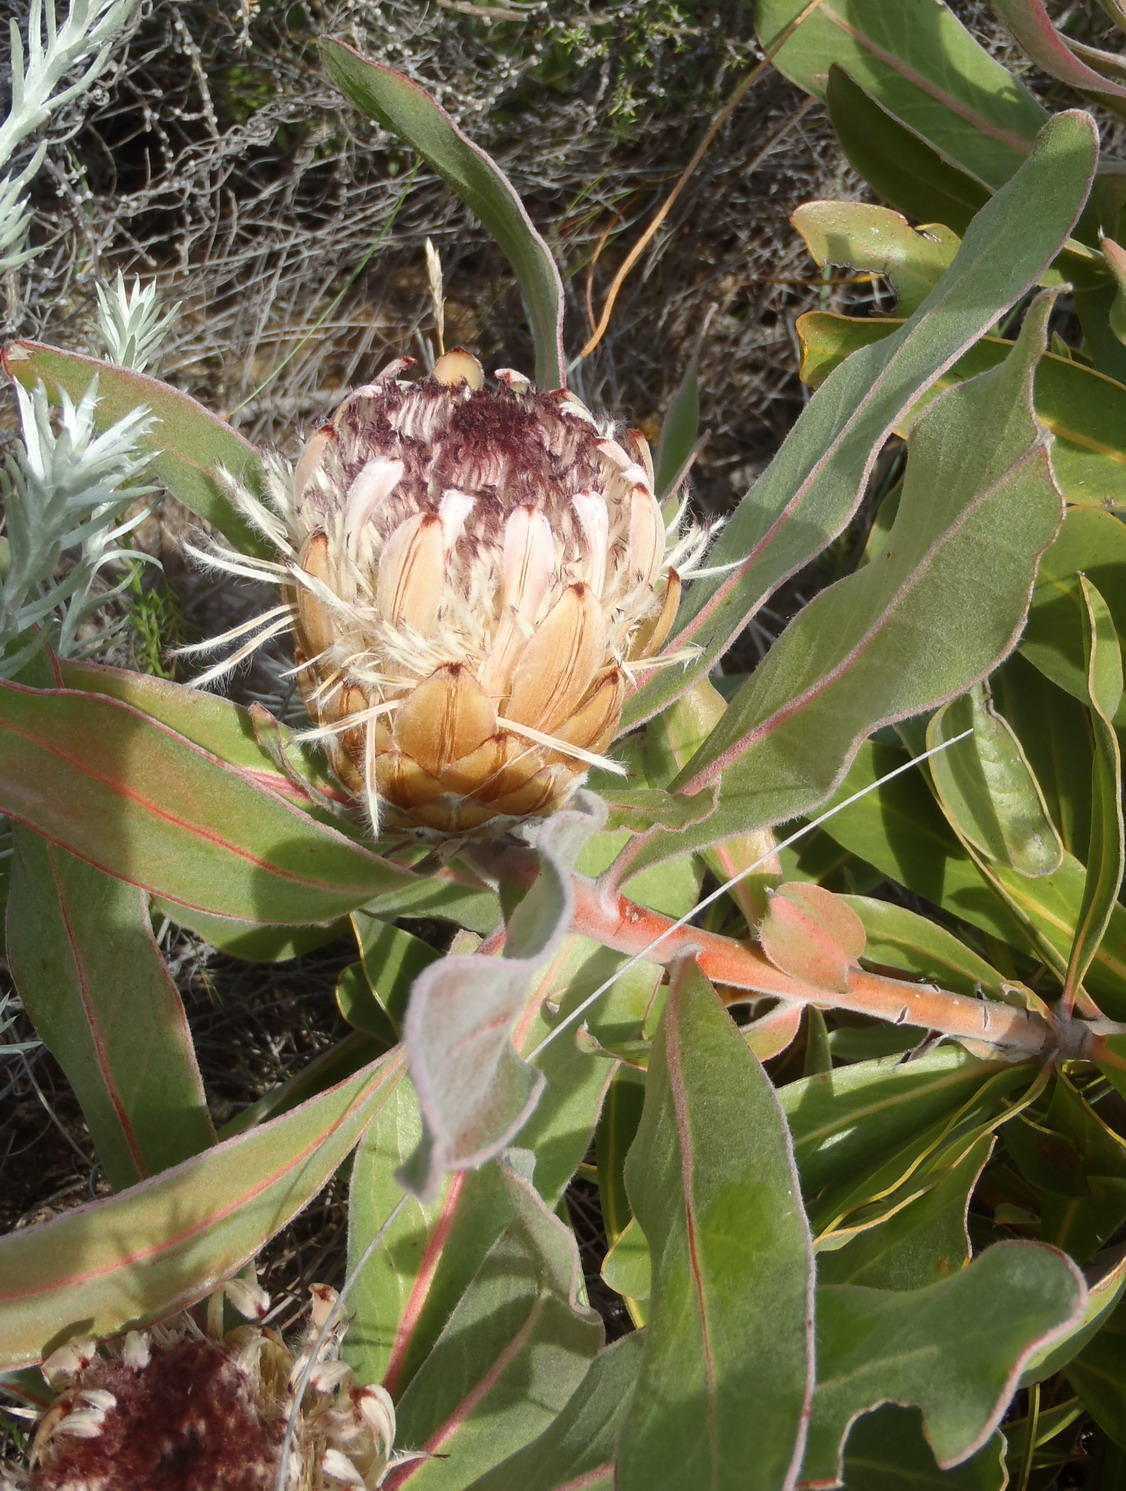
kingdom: Plantae
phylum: Tracheophyta
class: Magnoliopsida
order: Proteales
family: Proteaceae
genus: Protea
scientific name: Protea lorifolia
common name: Strap-leaved protea
